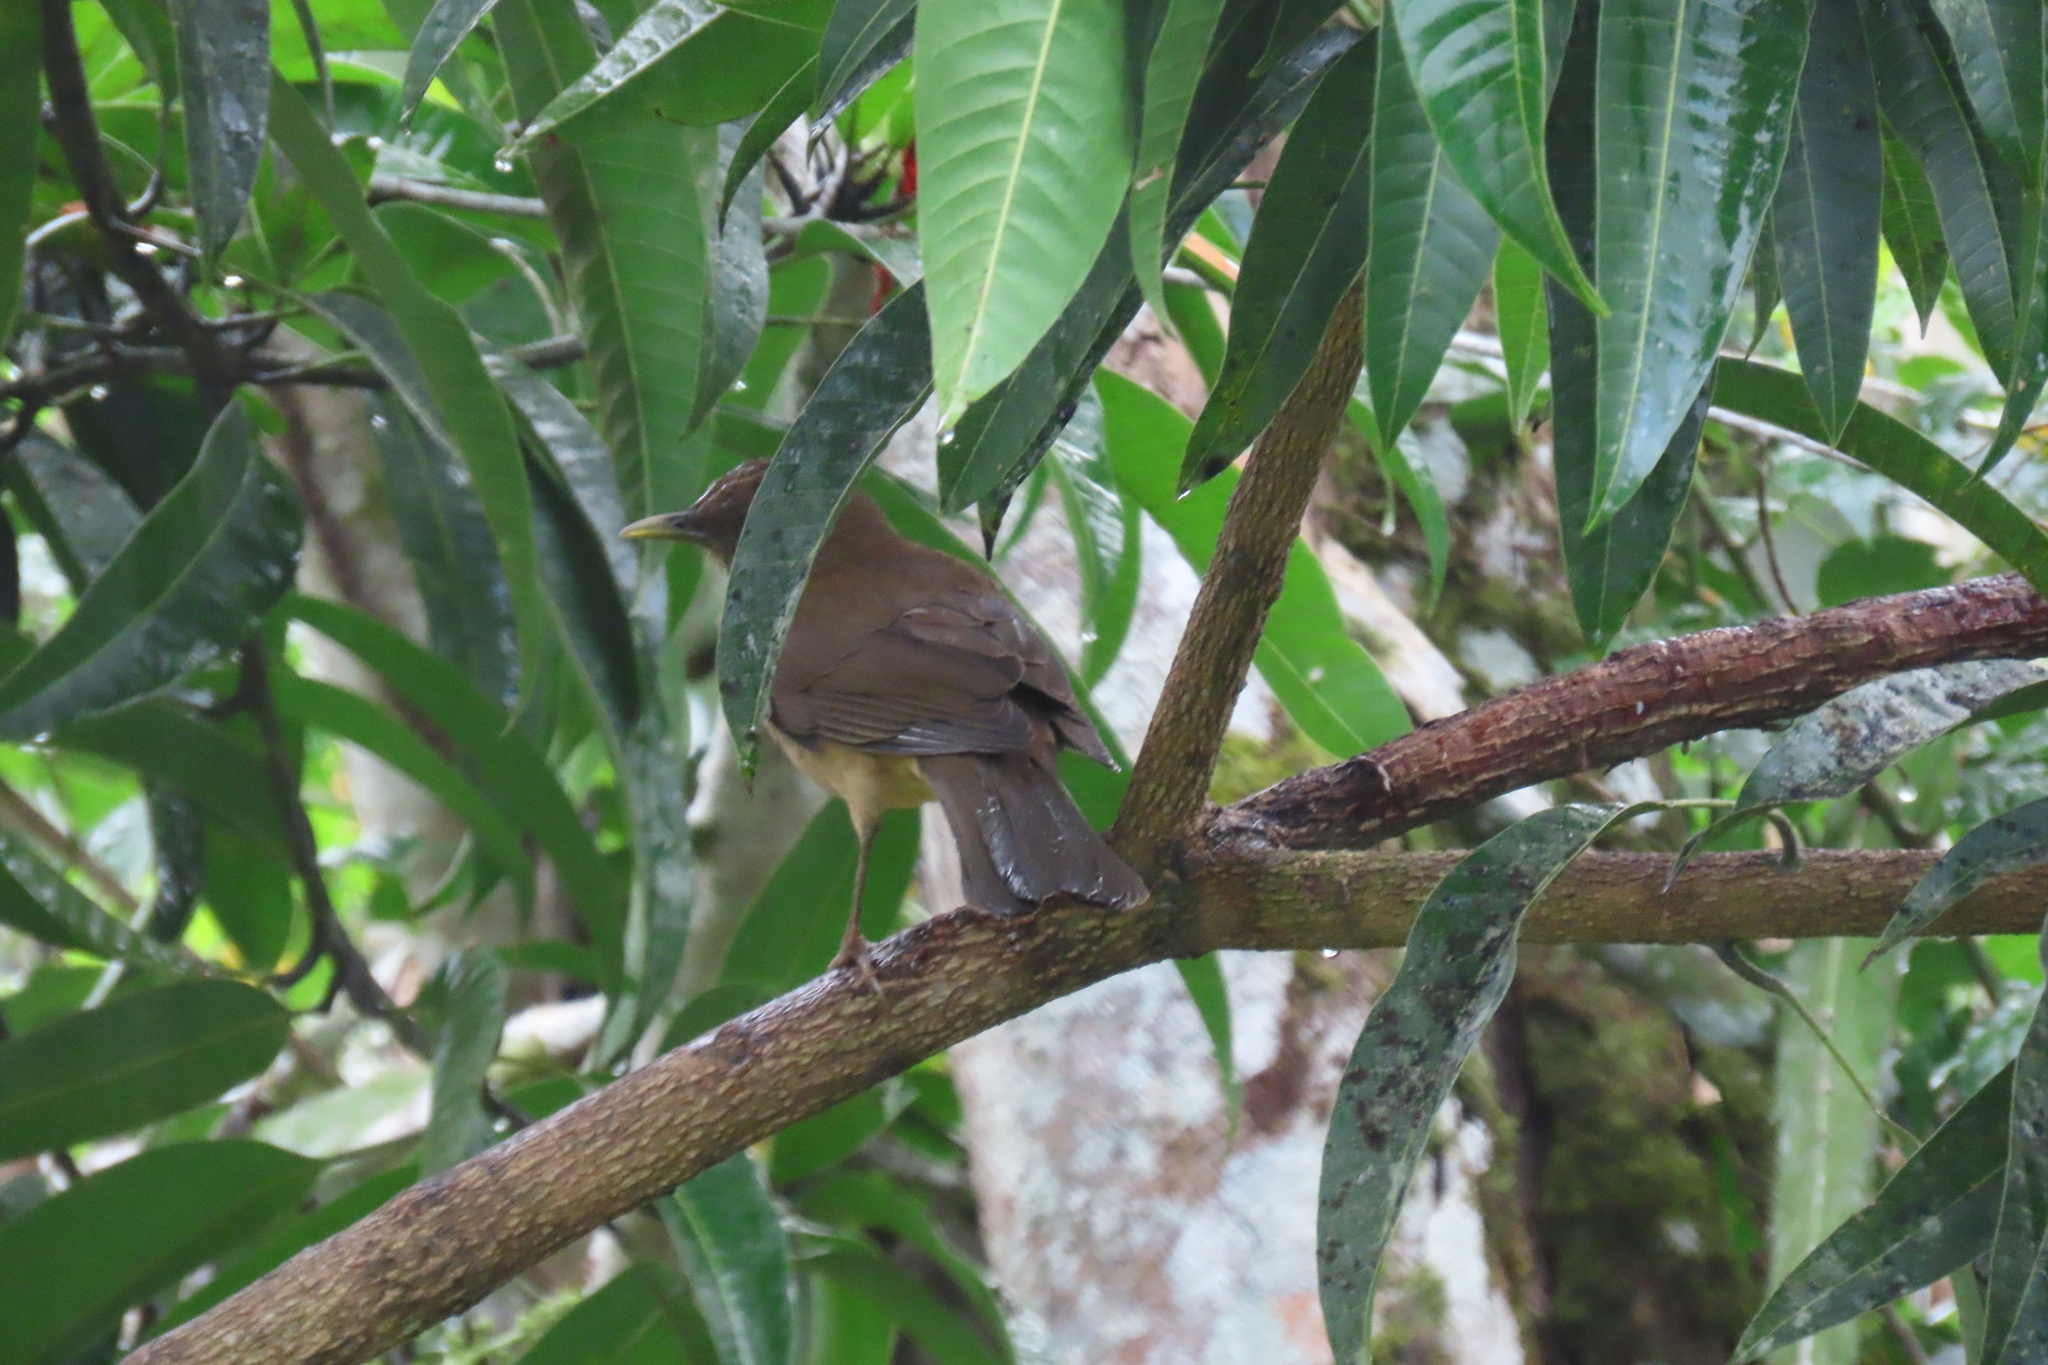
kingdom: Animalia
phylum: Chordata
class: Aves
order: Passeriformes
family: Turdidae
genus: Turdus
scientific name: Turdus grayi
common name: Clay-colored thrush
